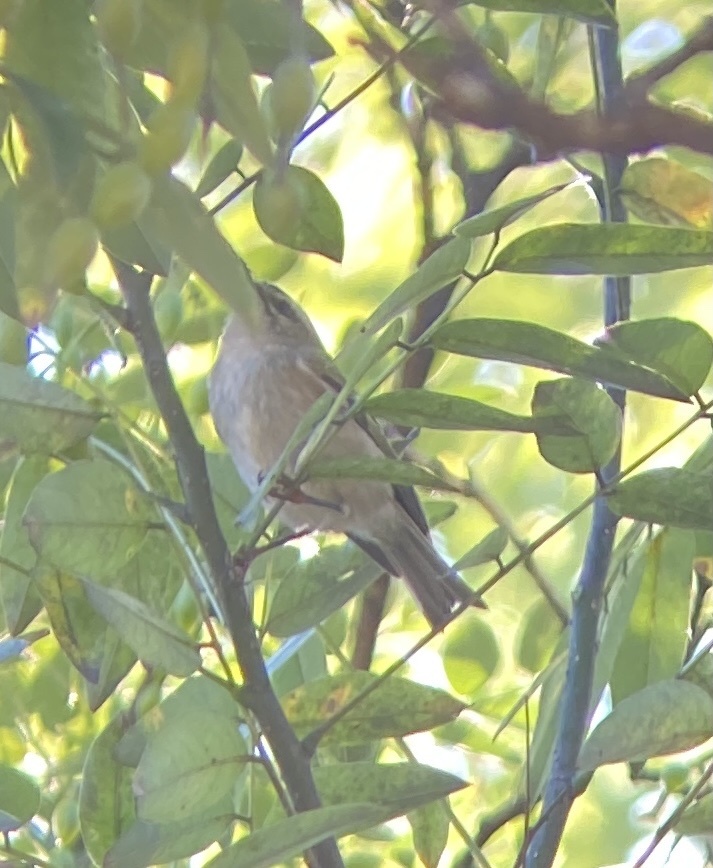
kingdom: Animalia
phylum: Chordata
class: Aves
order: Passeriformes
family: Regulidae
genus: Regulus
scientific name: Regulus satrapa
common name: Golden-crowned kinglet
